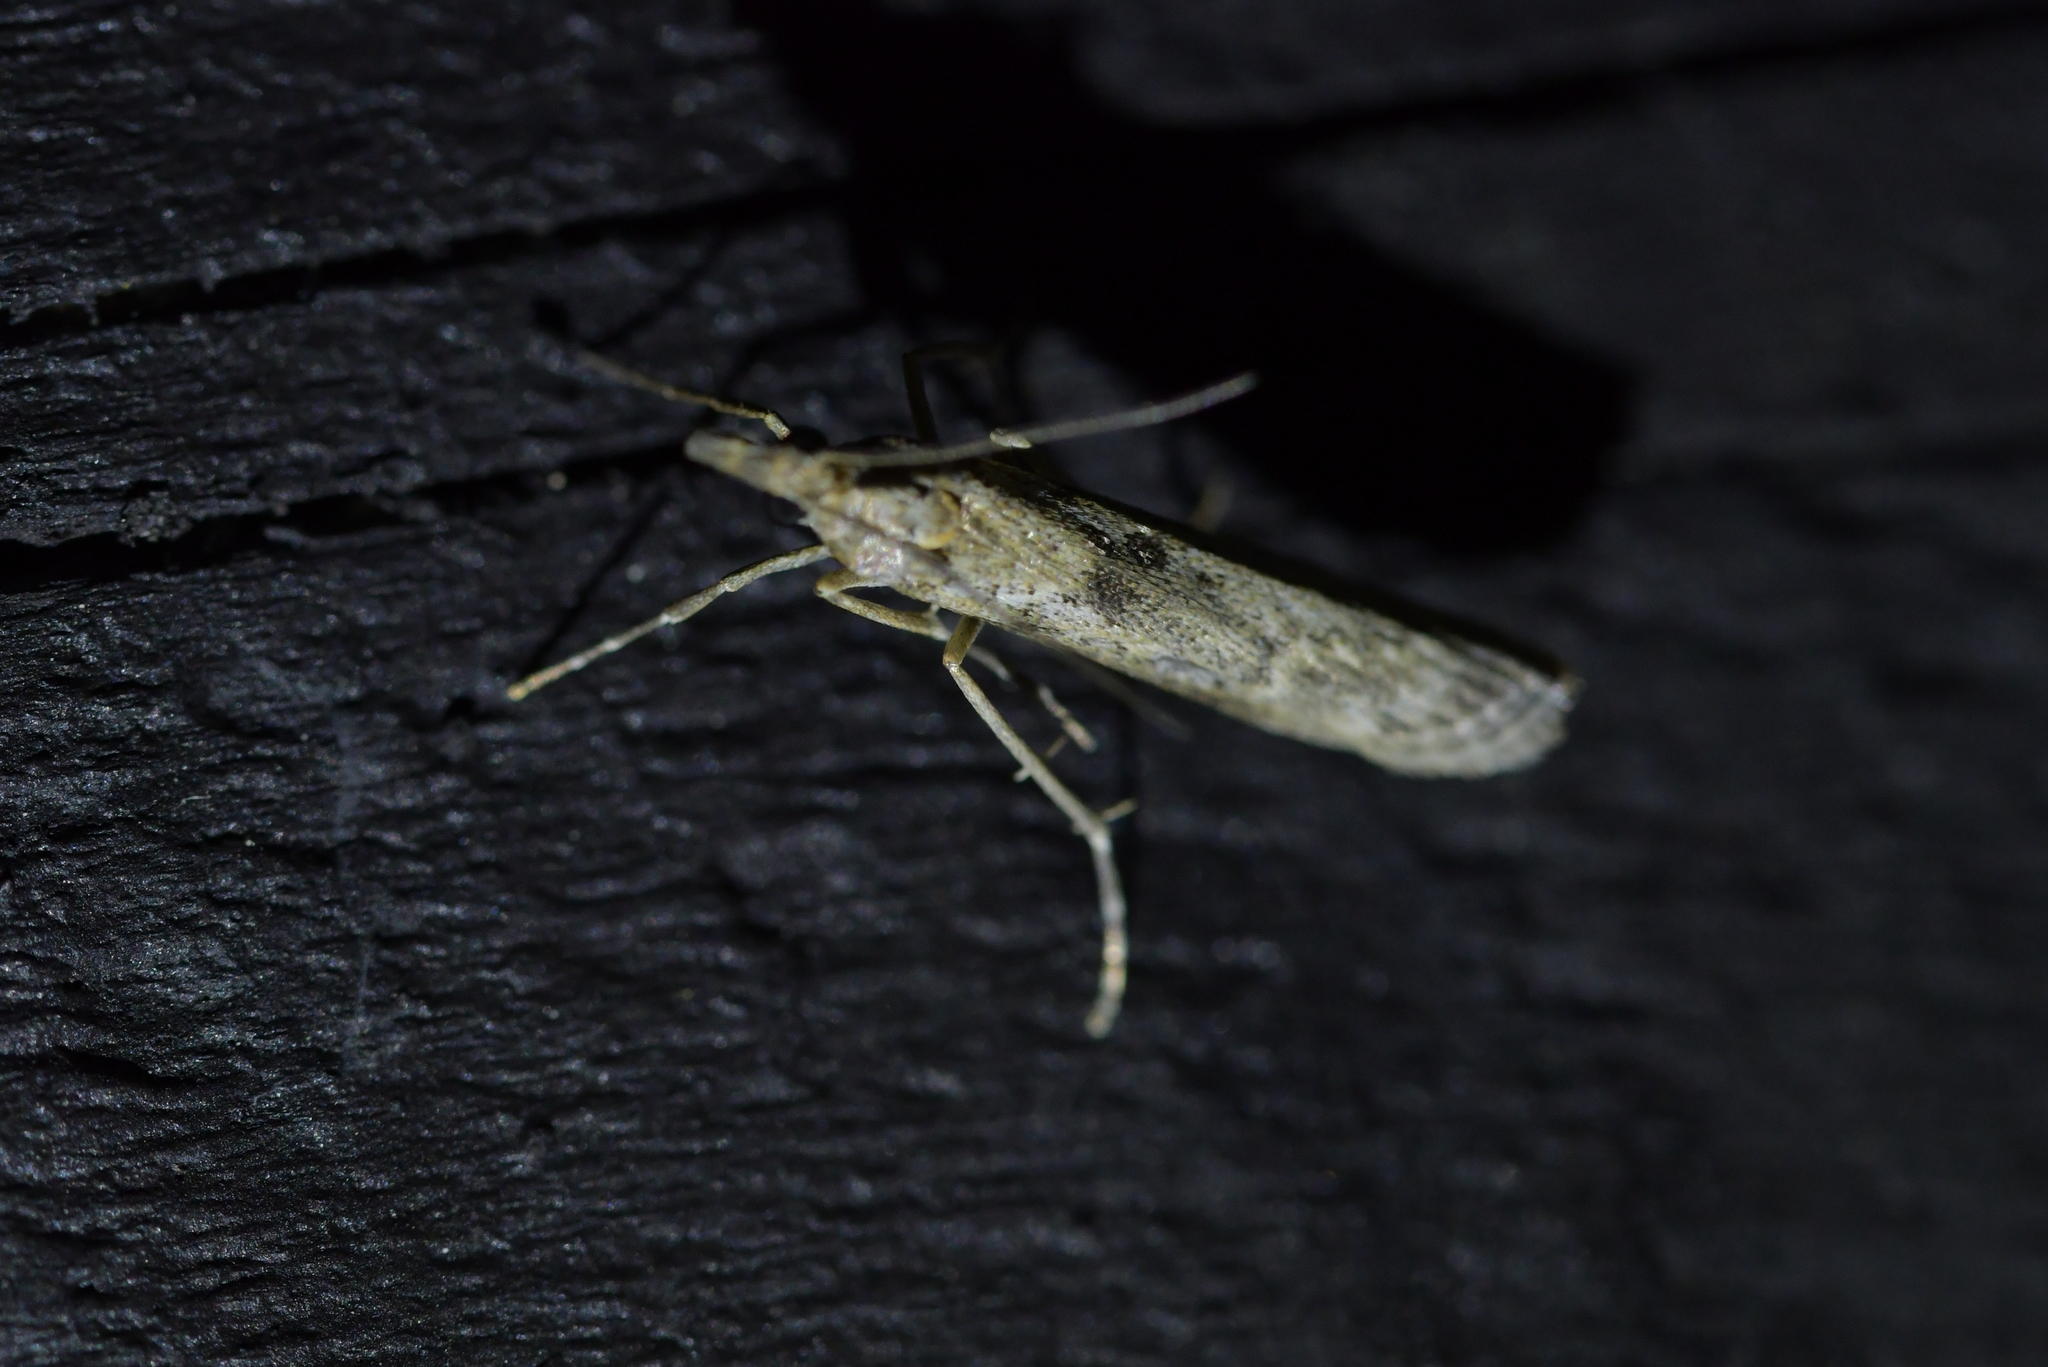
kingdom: Animalia
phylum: Arthropoda
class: Insecta
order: Lepidoptera
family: Crambidae
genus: Eudonia
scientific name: Eudonia leptalea
